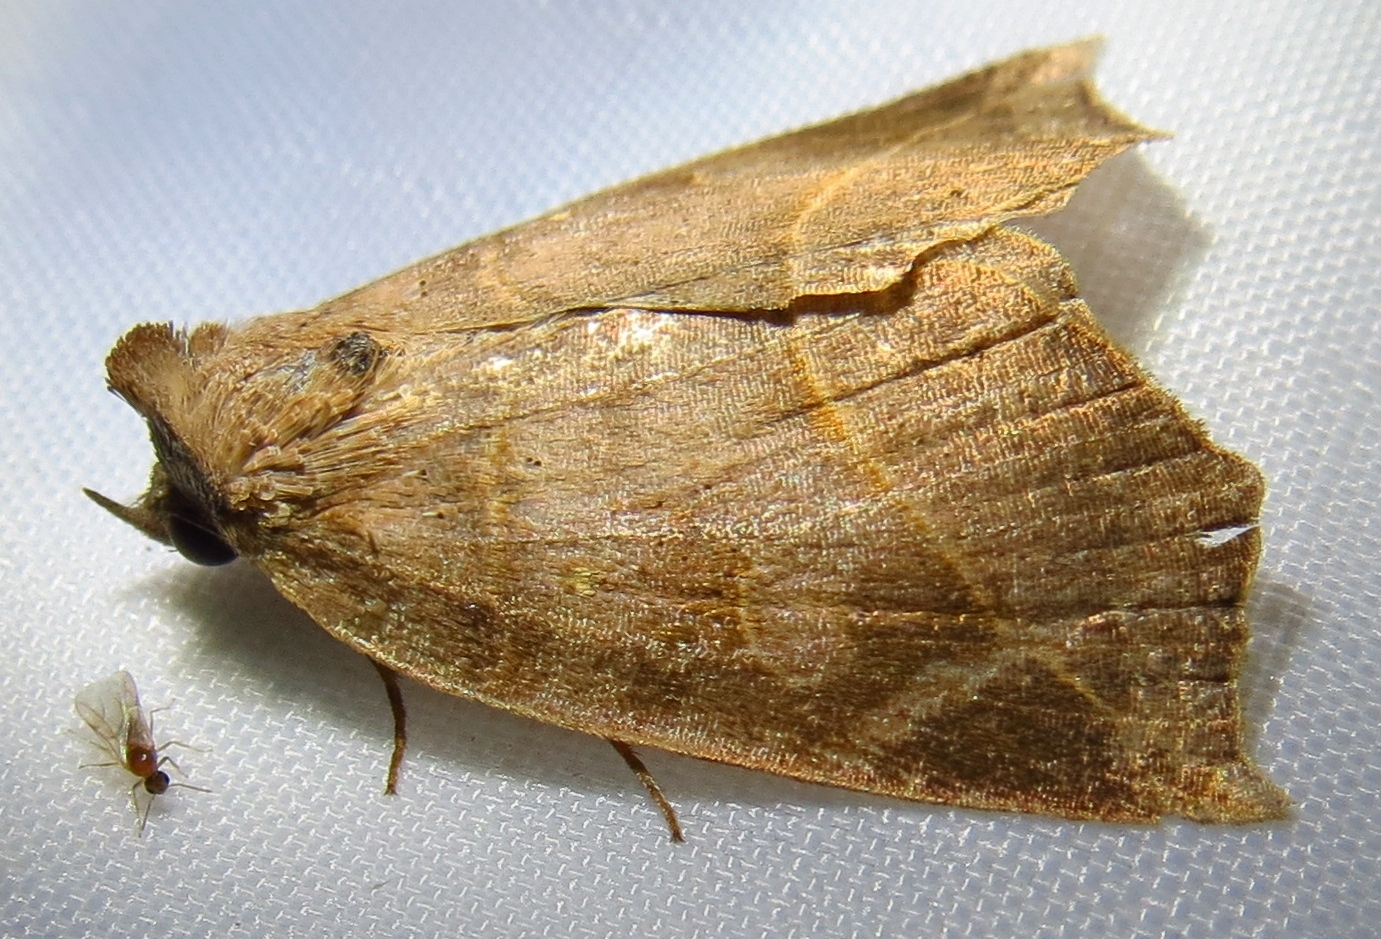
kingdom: Animalia
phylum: Arthropoda
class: Insecta
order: Lepidoptera
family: Erebidae
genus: Isogona
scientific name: Isogona tenuis
